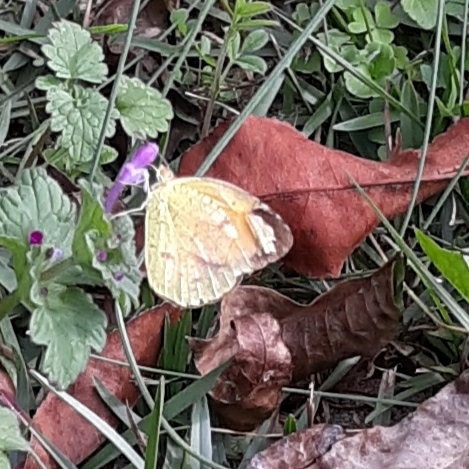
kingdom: Animalia
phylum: Arthropoda
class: Insecta
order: Lepidoptera
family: Pieridae
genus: Abaeis
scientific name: Abaeis nicippe
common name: Sleepy orange
